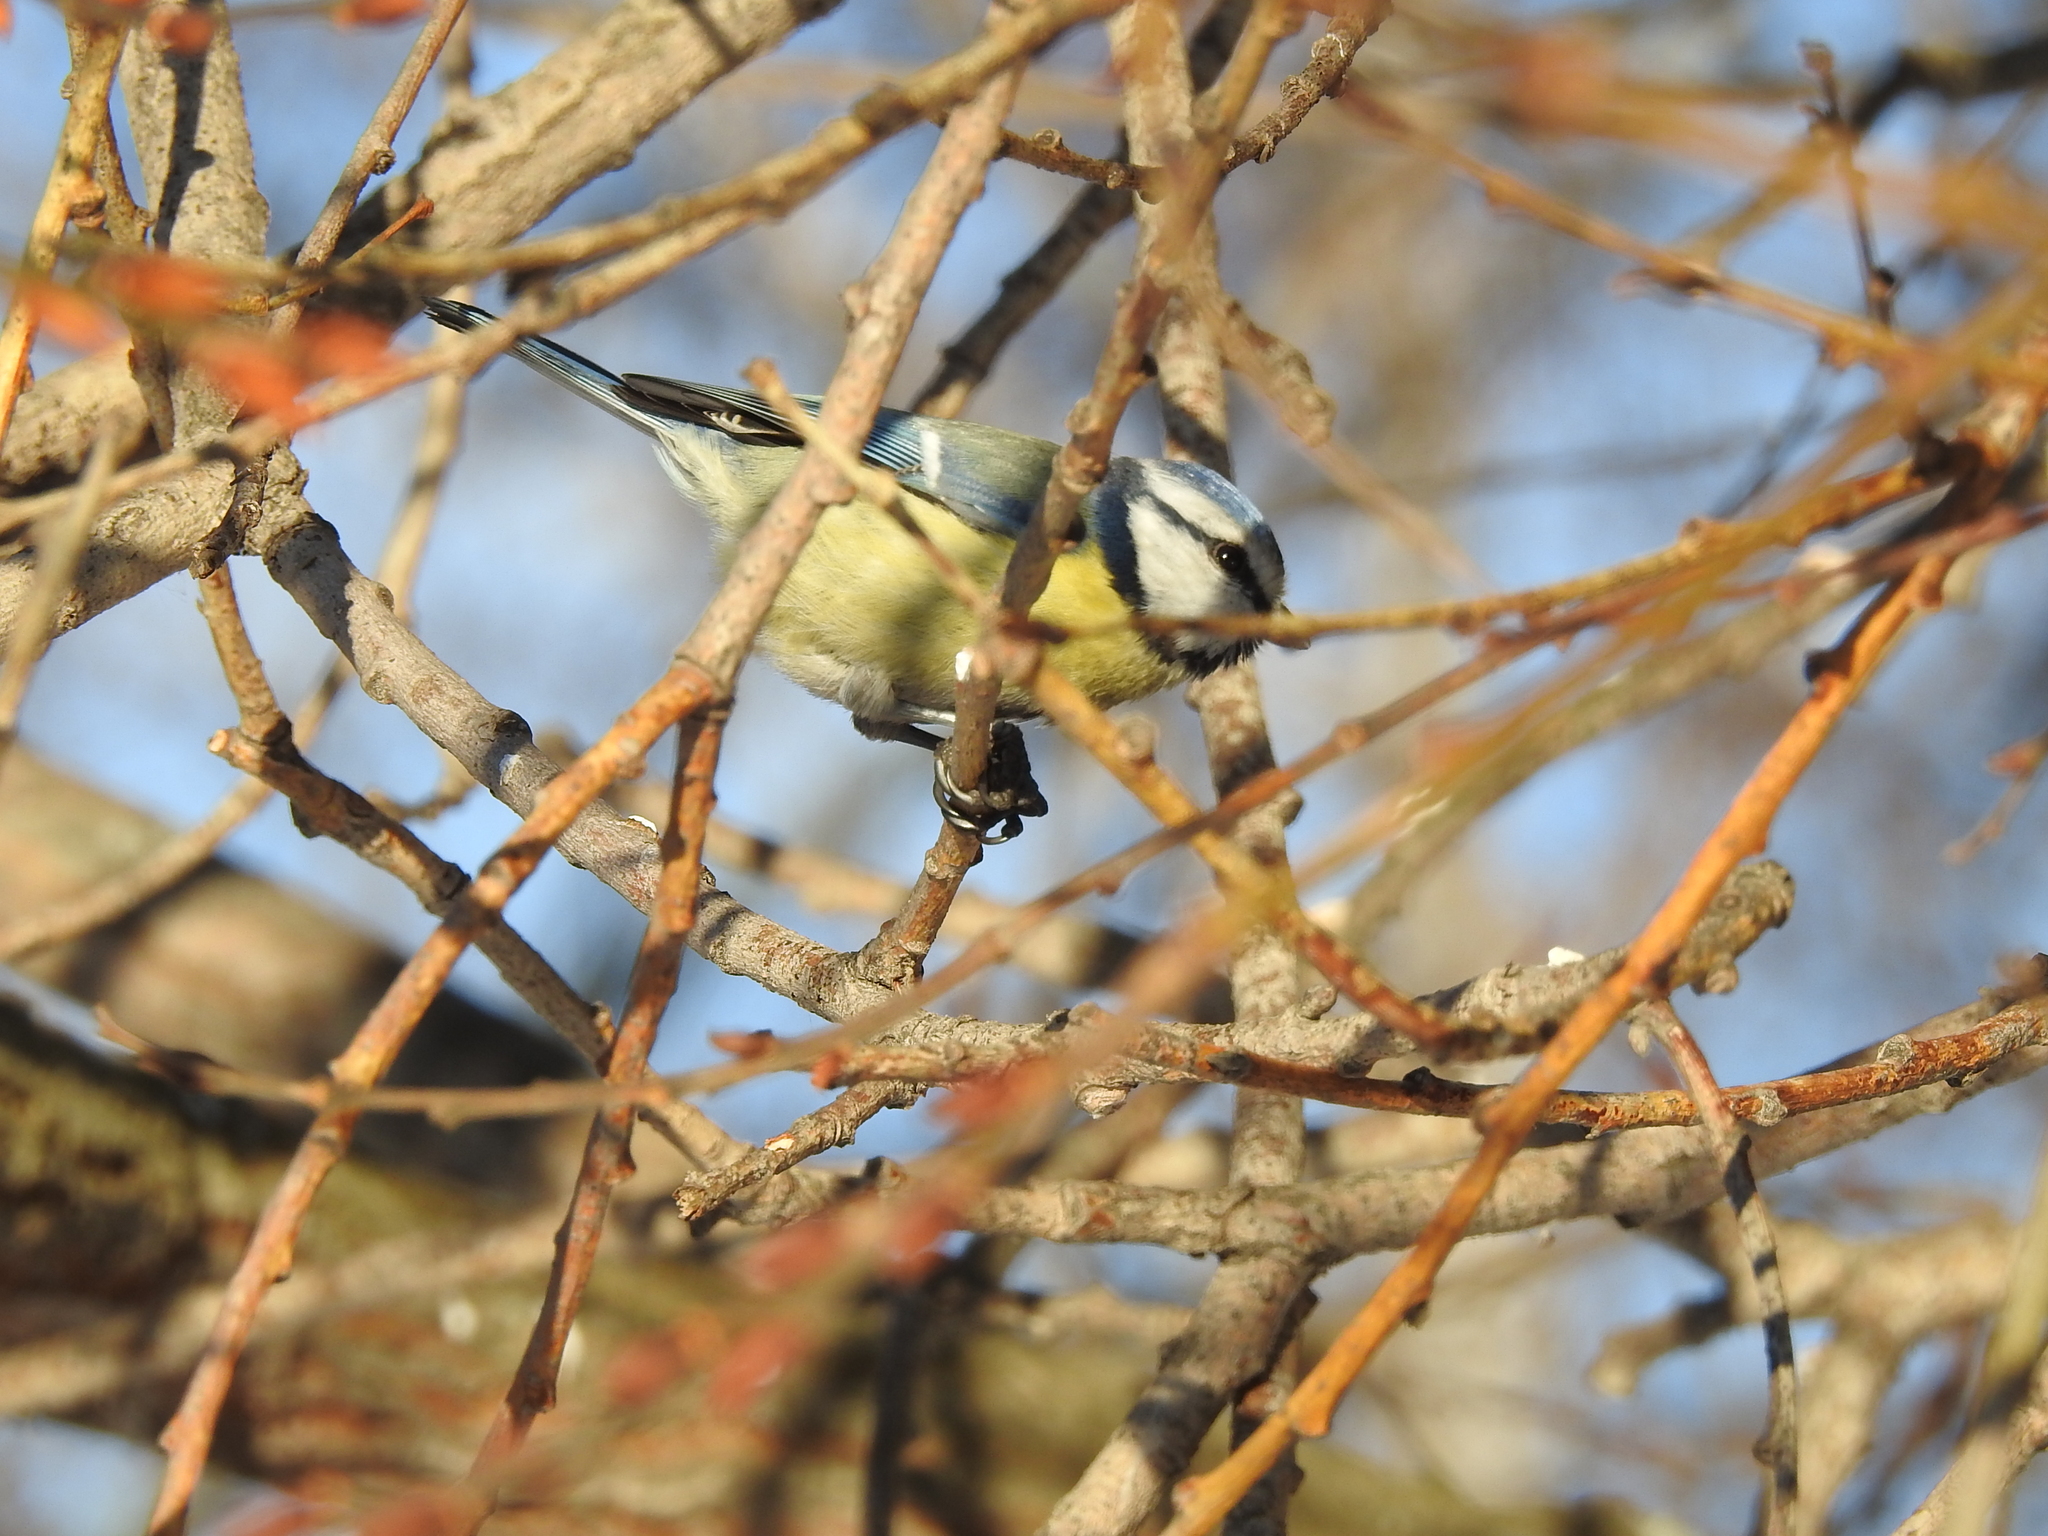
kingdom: Animalia
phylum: Chordata
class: Aves
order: Passeriformes
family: Paridae
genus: Cyanistes
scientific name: Cyanistes caeruleus
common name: Eurasian blue tit
